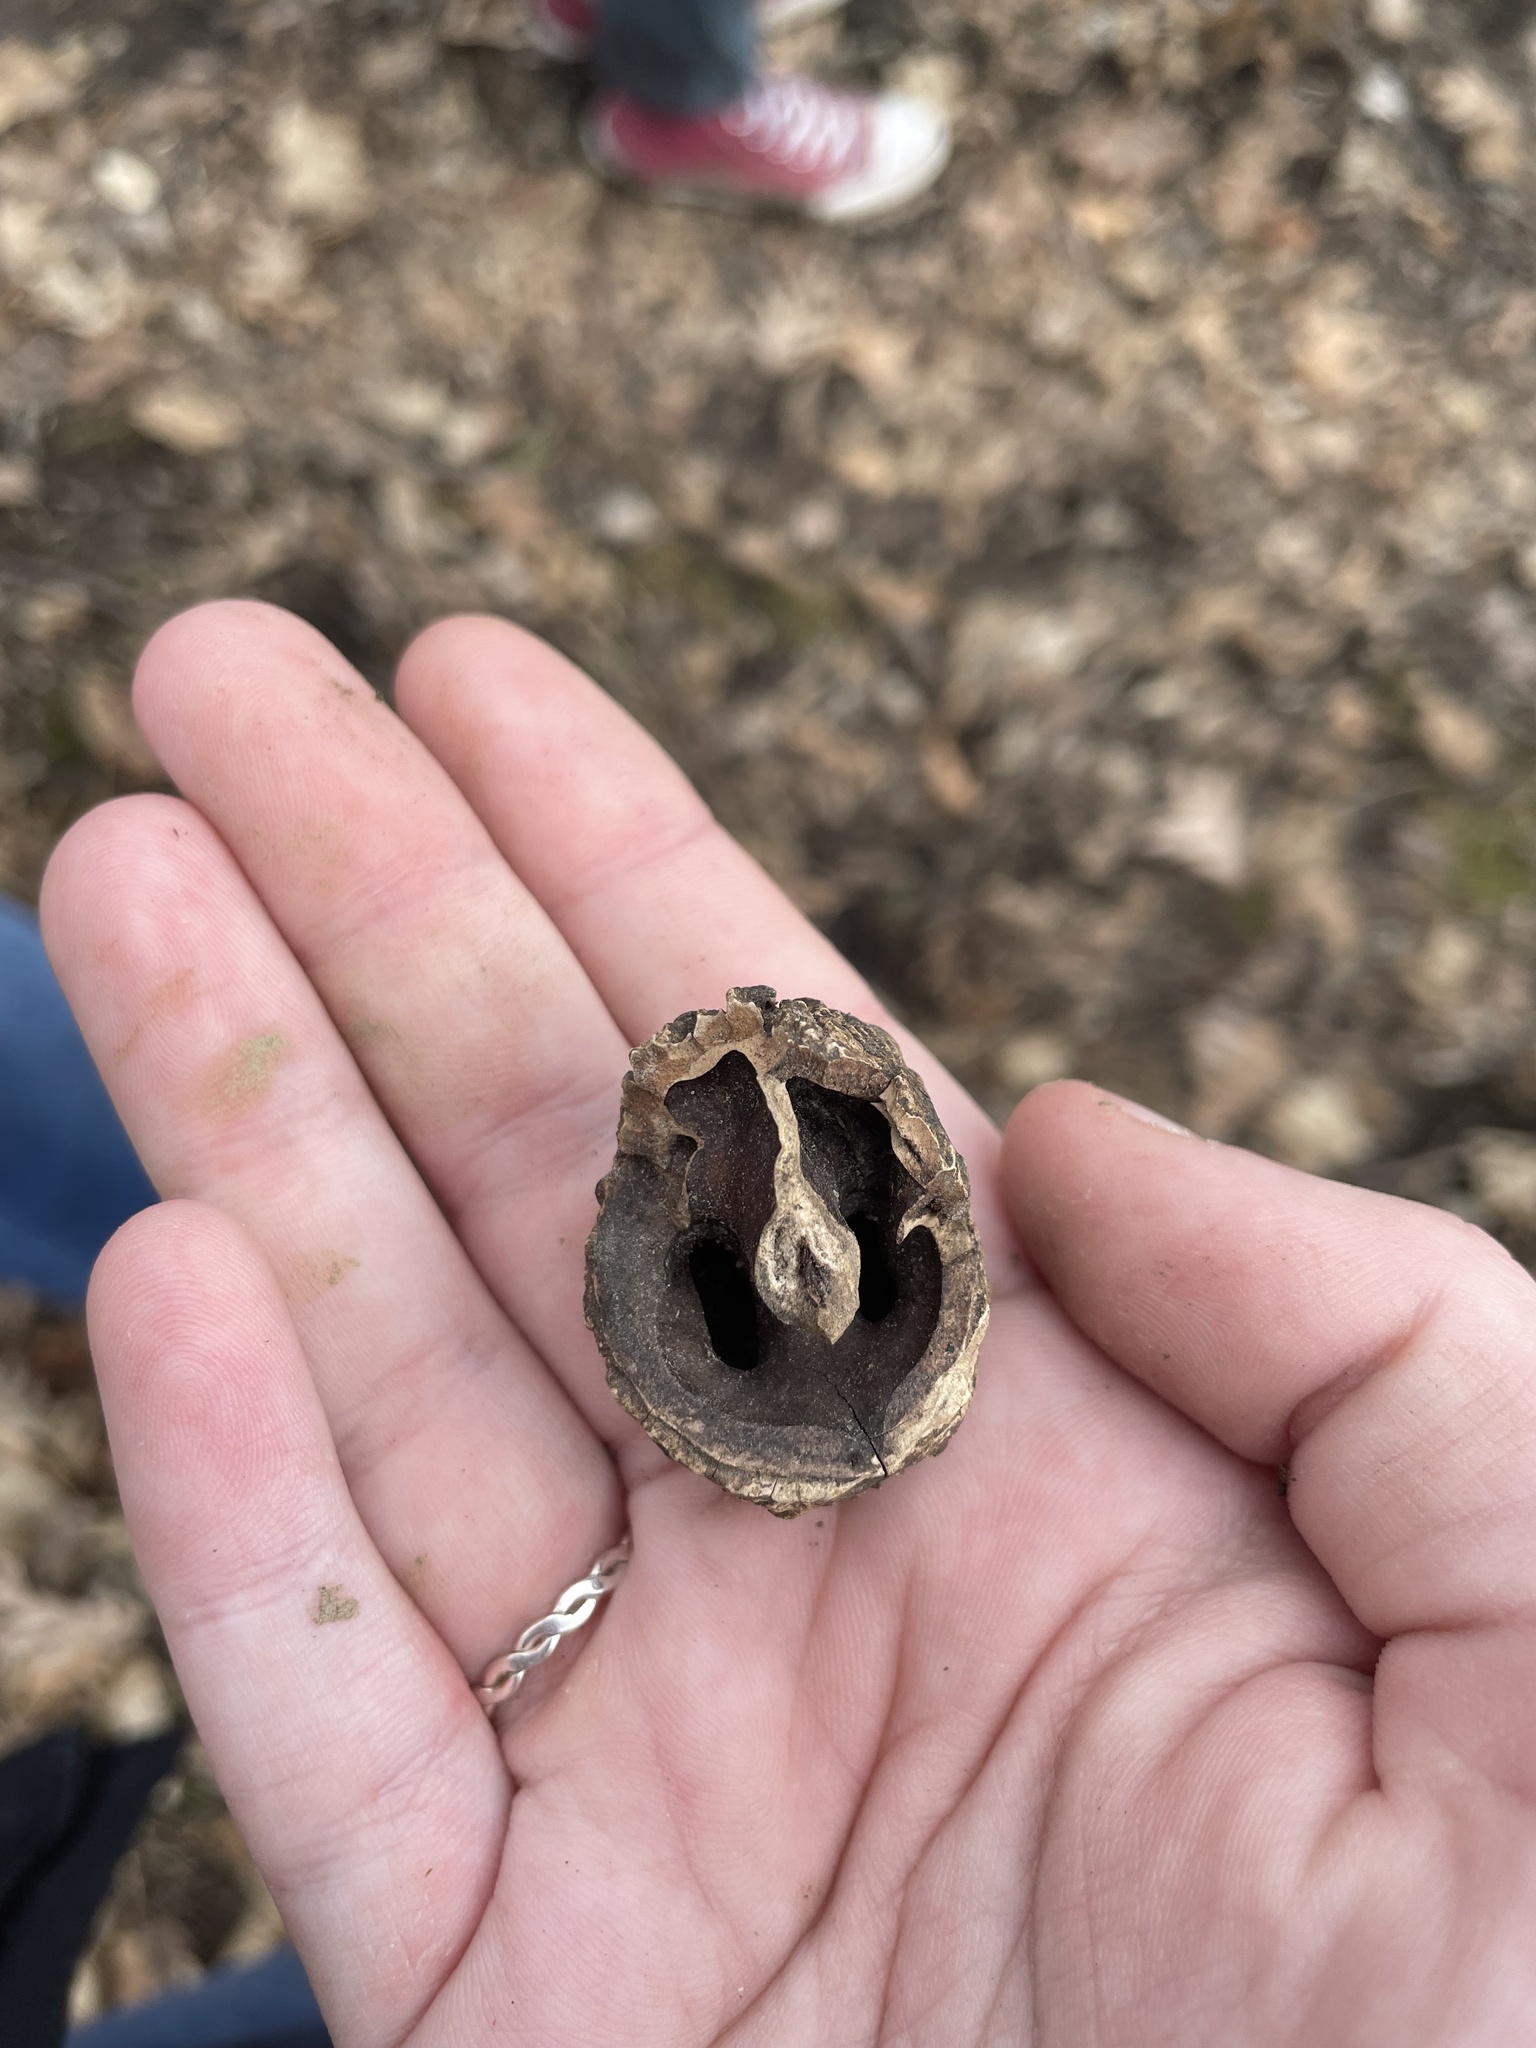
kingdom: Plantae
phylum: Tracheophyta
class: Magnoliopsida
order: Fagales
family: Juglandaceae
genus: Juglans
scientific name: Juglans nigra
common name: Black walnut
